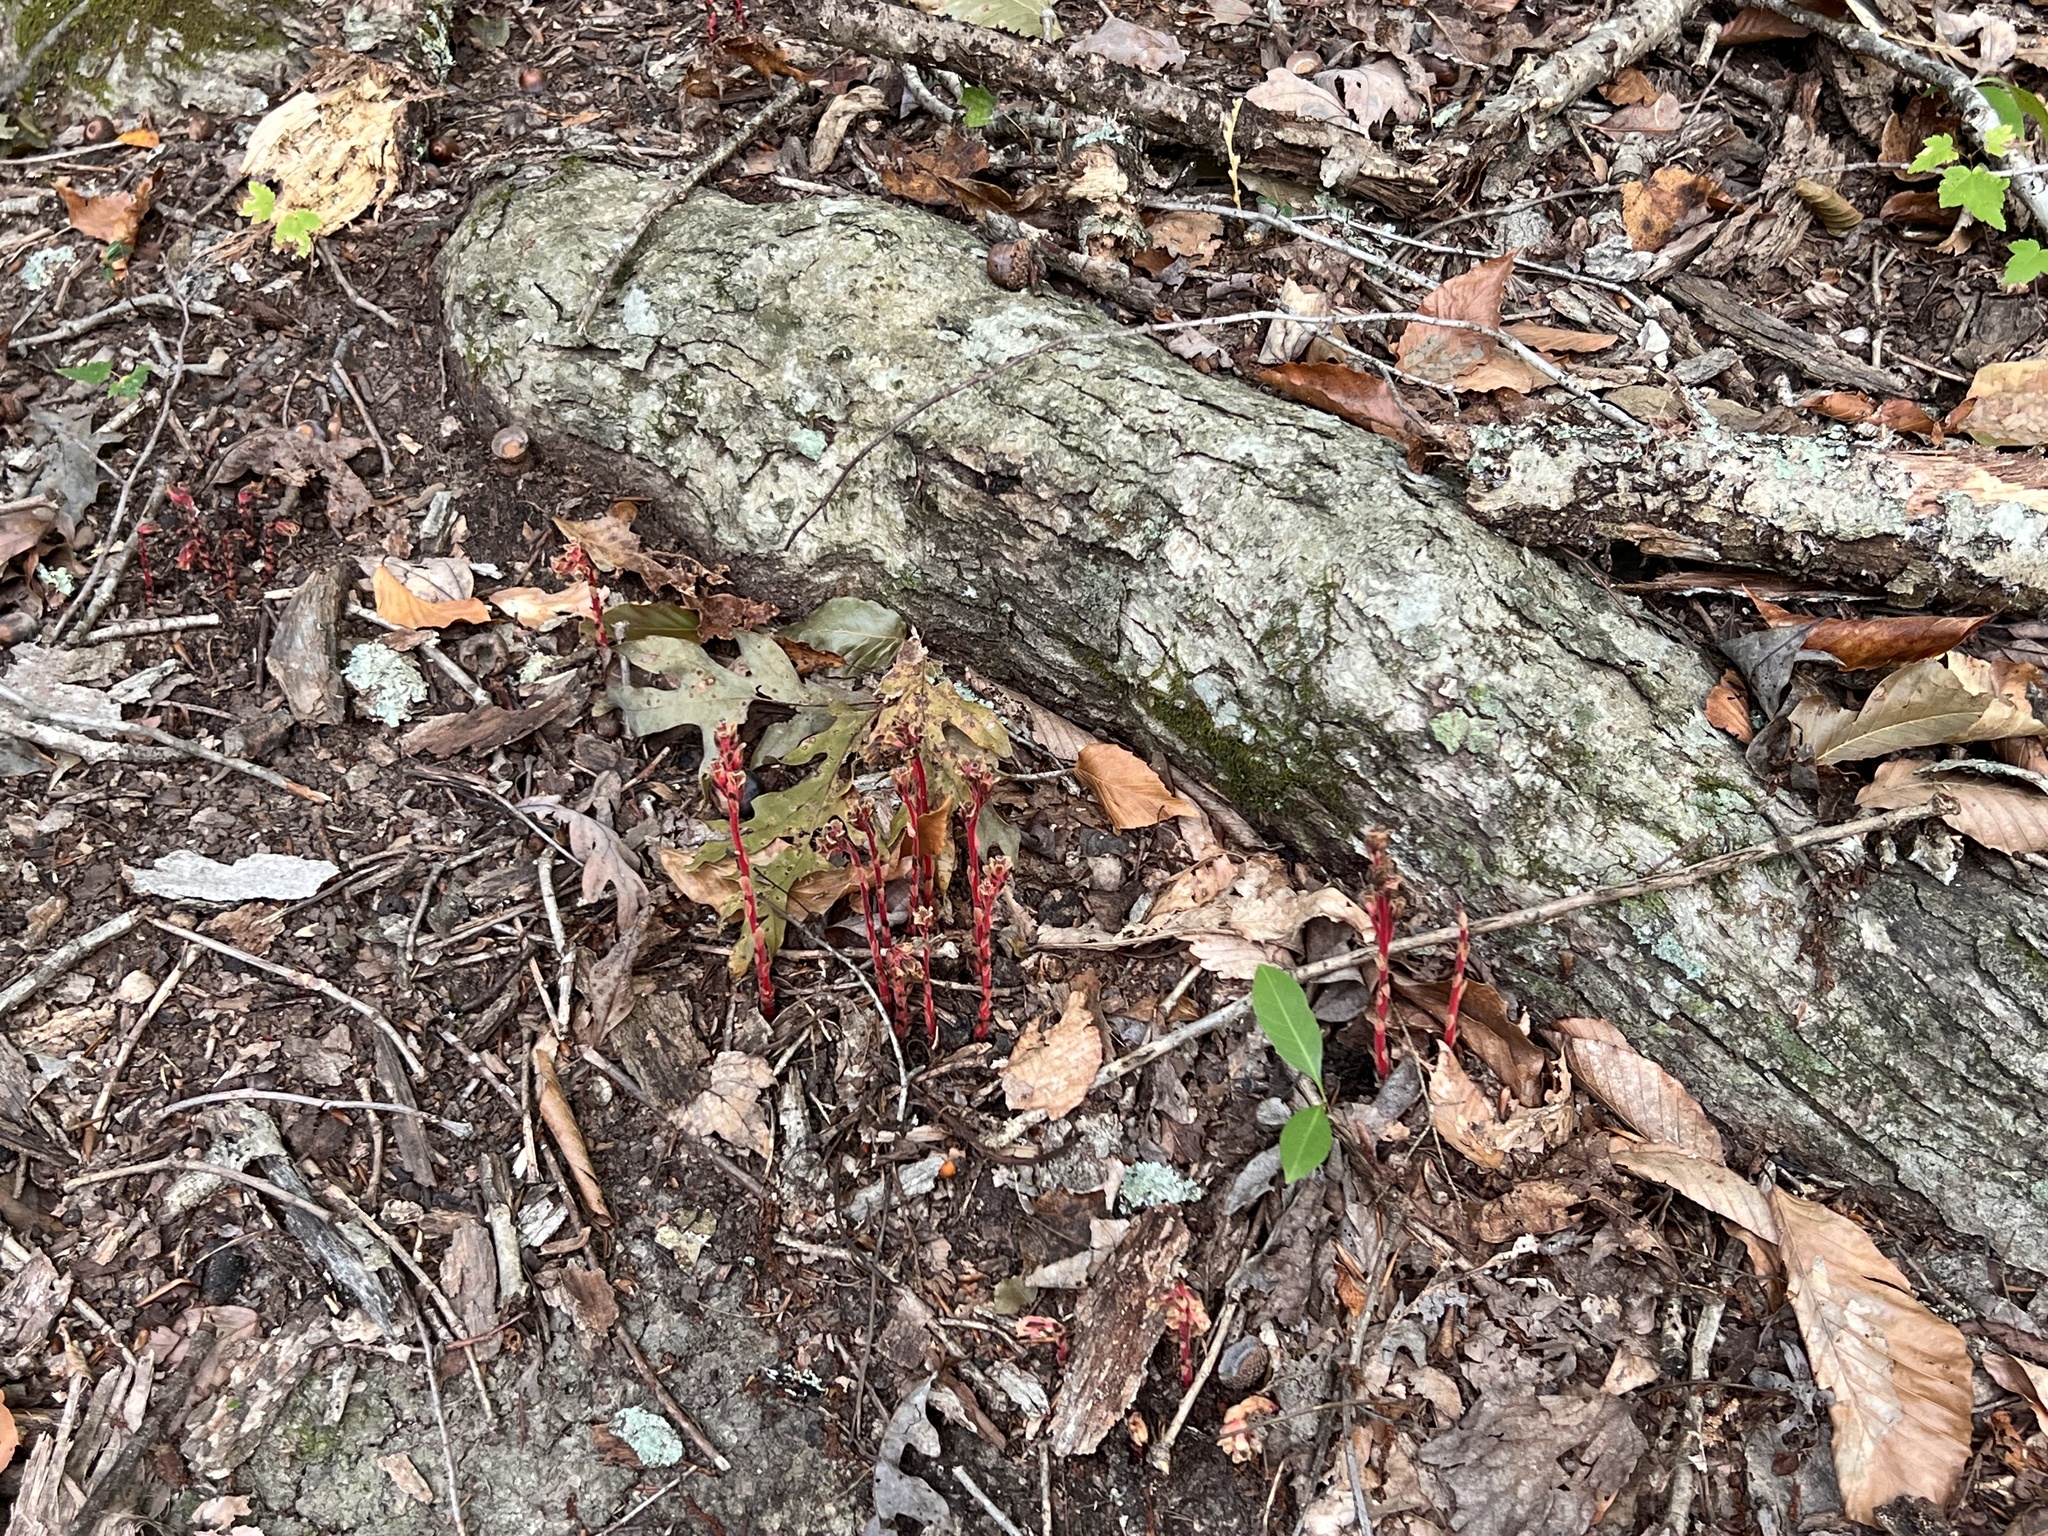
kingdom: Plantae
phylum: Tracheophyta
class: Magnoliopsida
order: Ericales
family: Ericaceae
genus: Hypopitys
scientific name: Hypopitys monotropa
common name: Yellow bird's-nest
